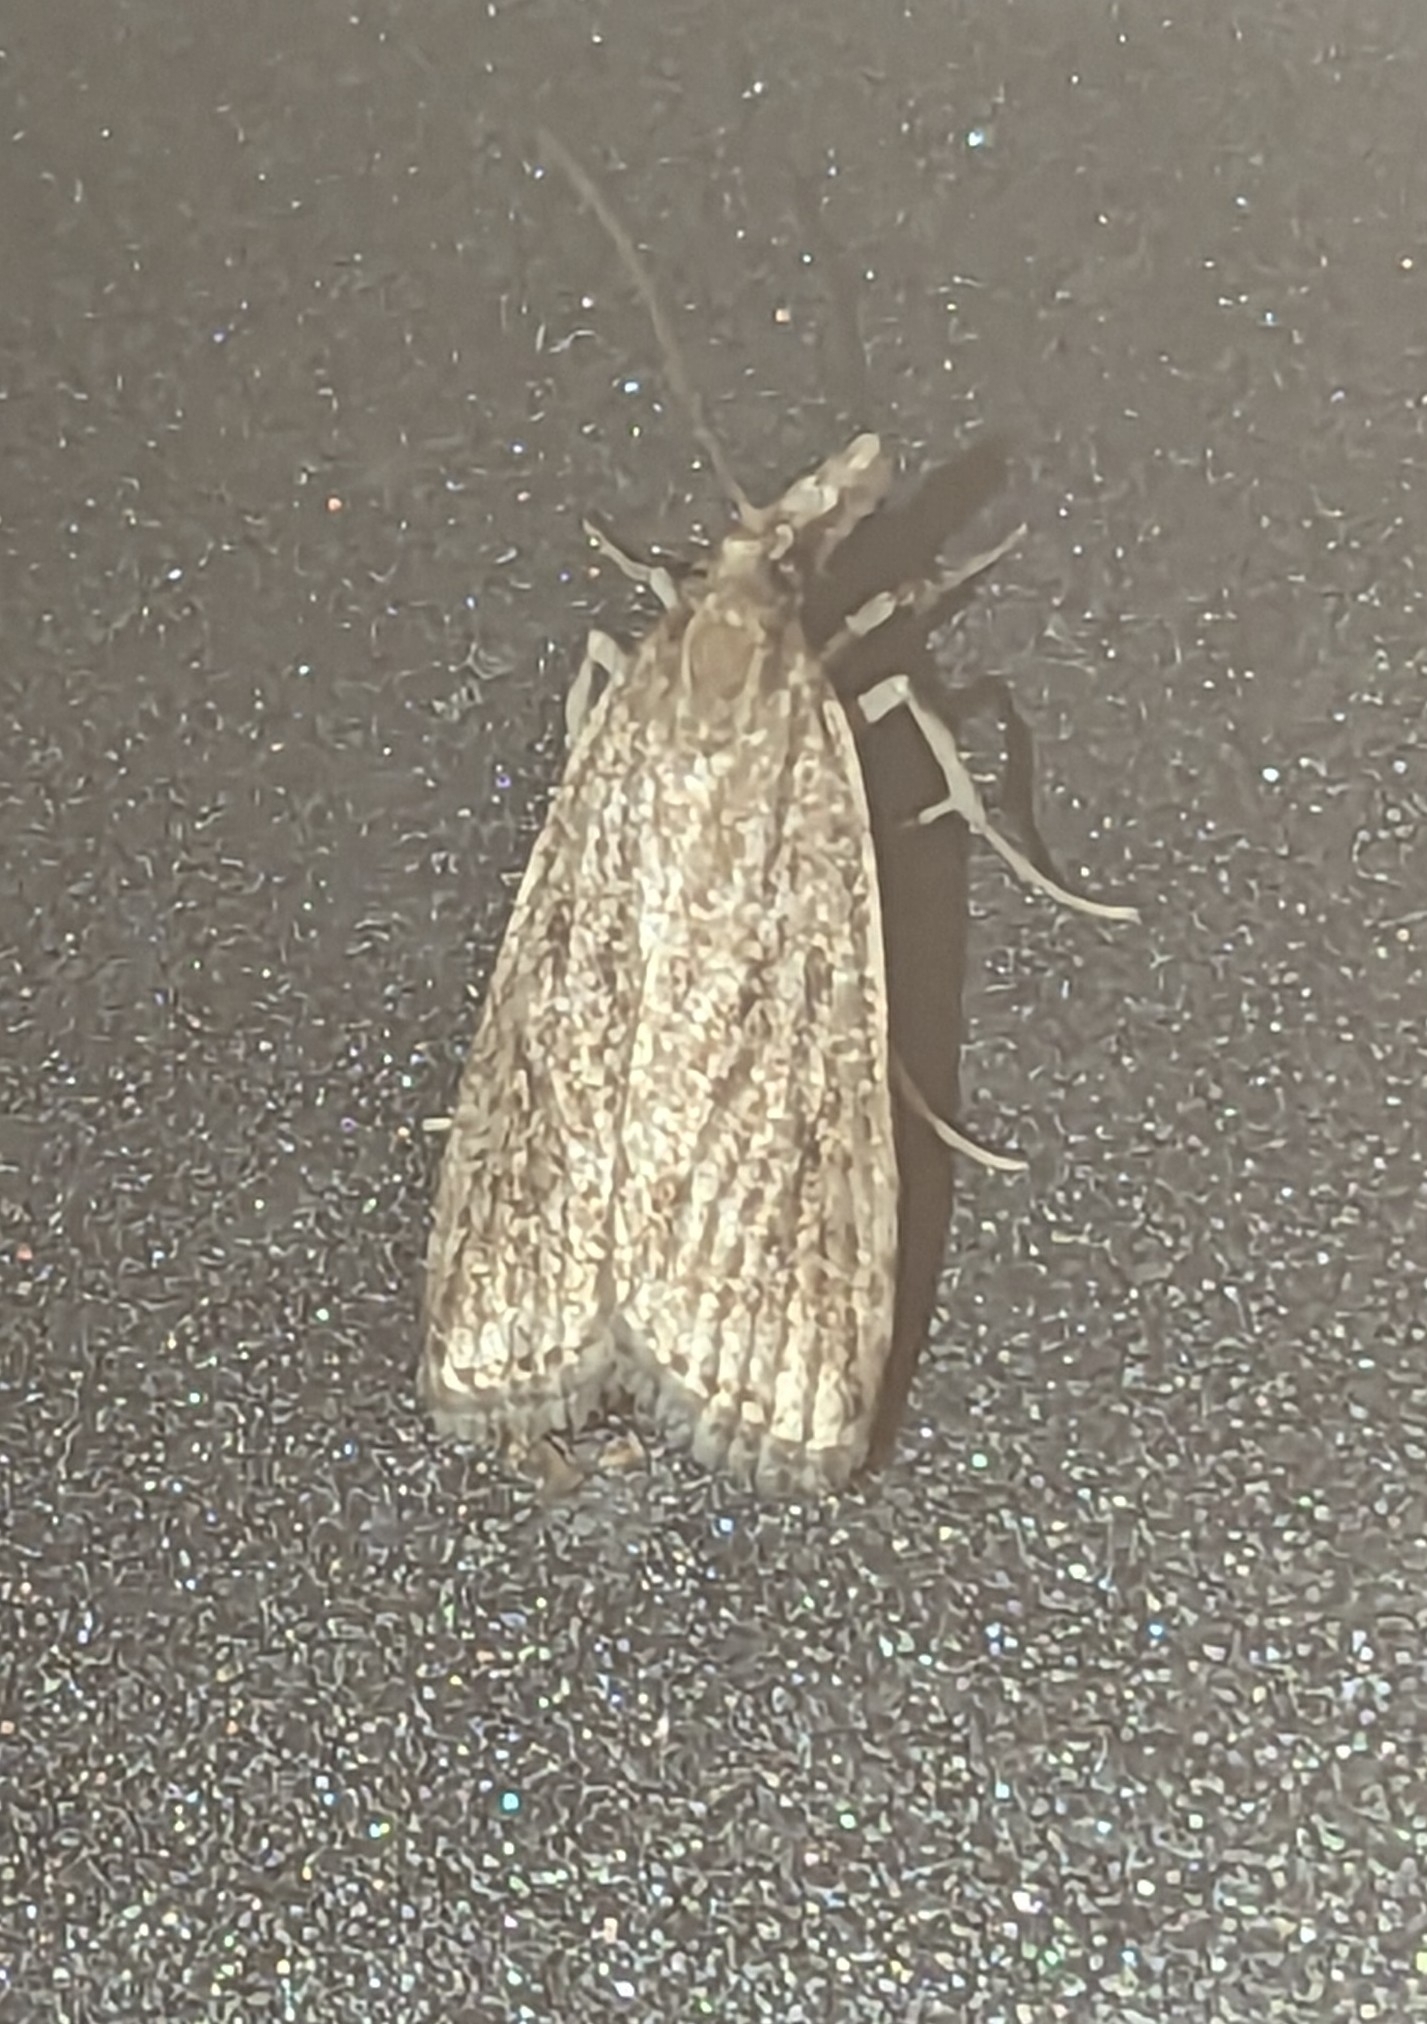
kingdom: Animalia
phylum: Arthropoda
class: Insecta
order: Lepidoptera
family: Crambidae
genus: Eudonia
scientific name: Eudonia truncicolella
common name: Ground-moss grey
